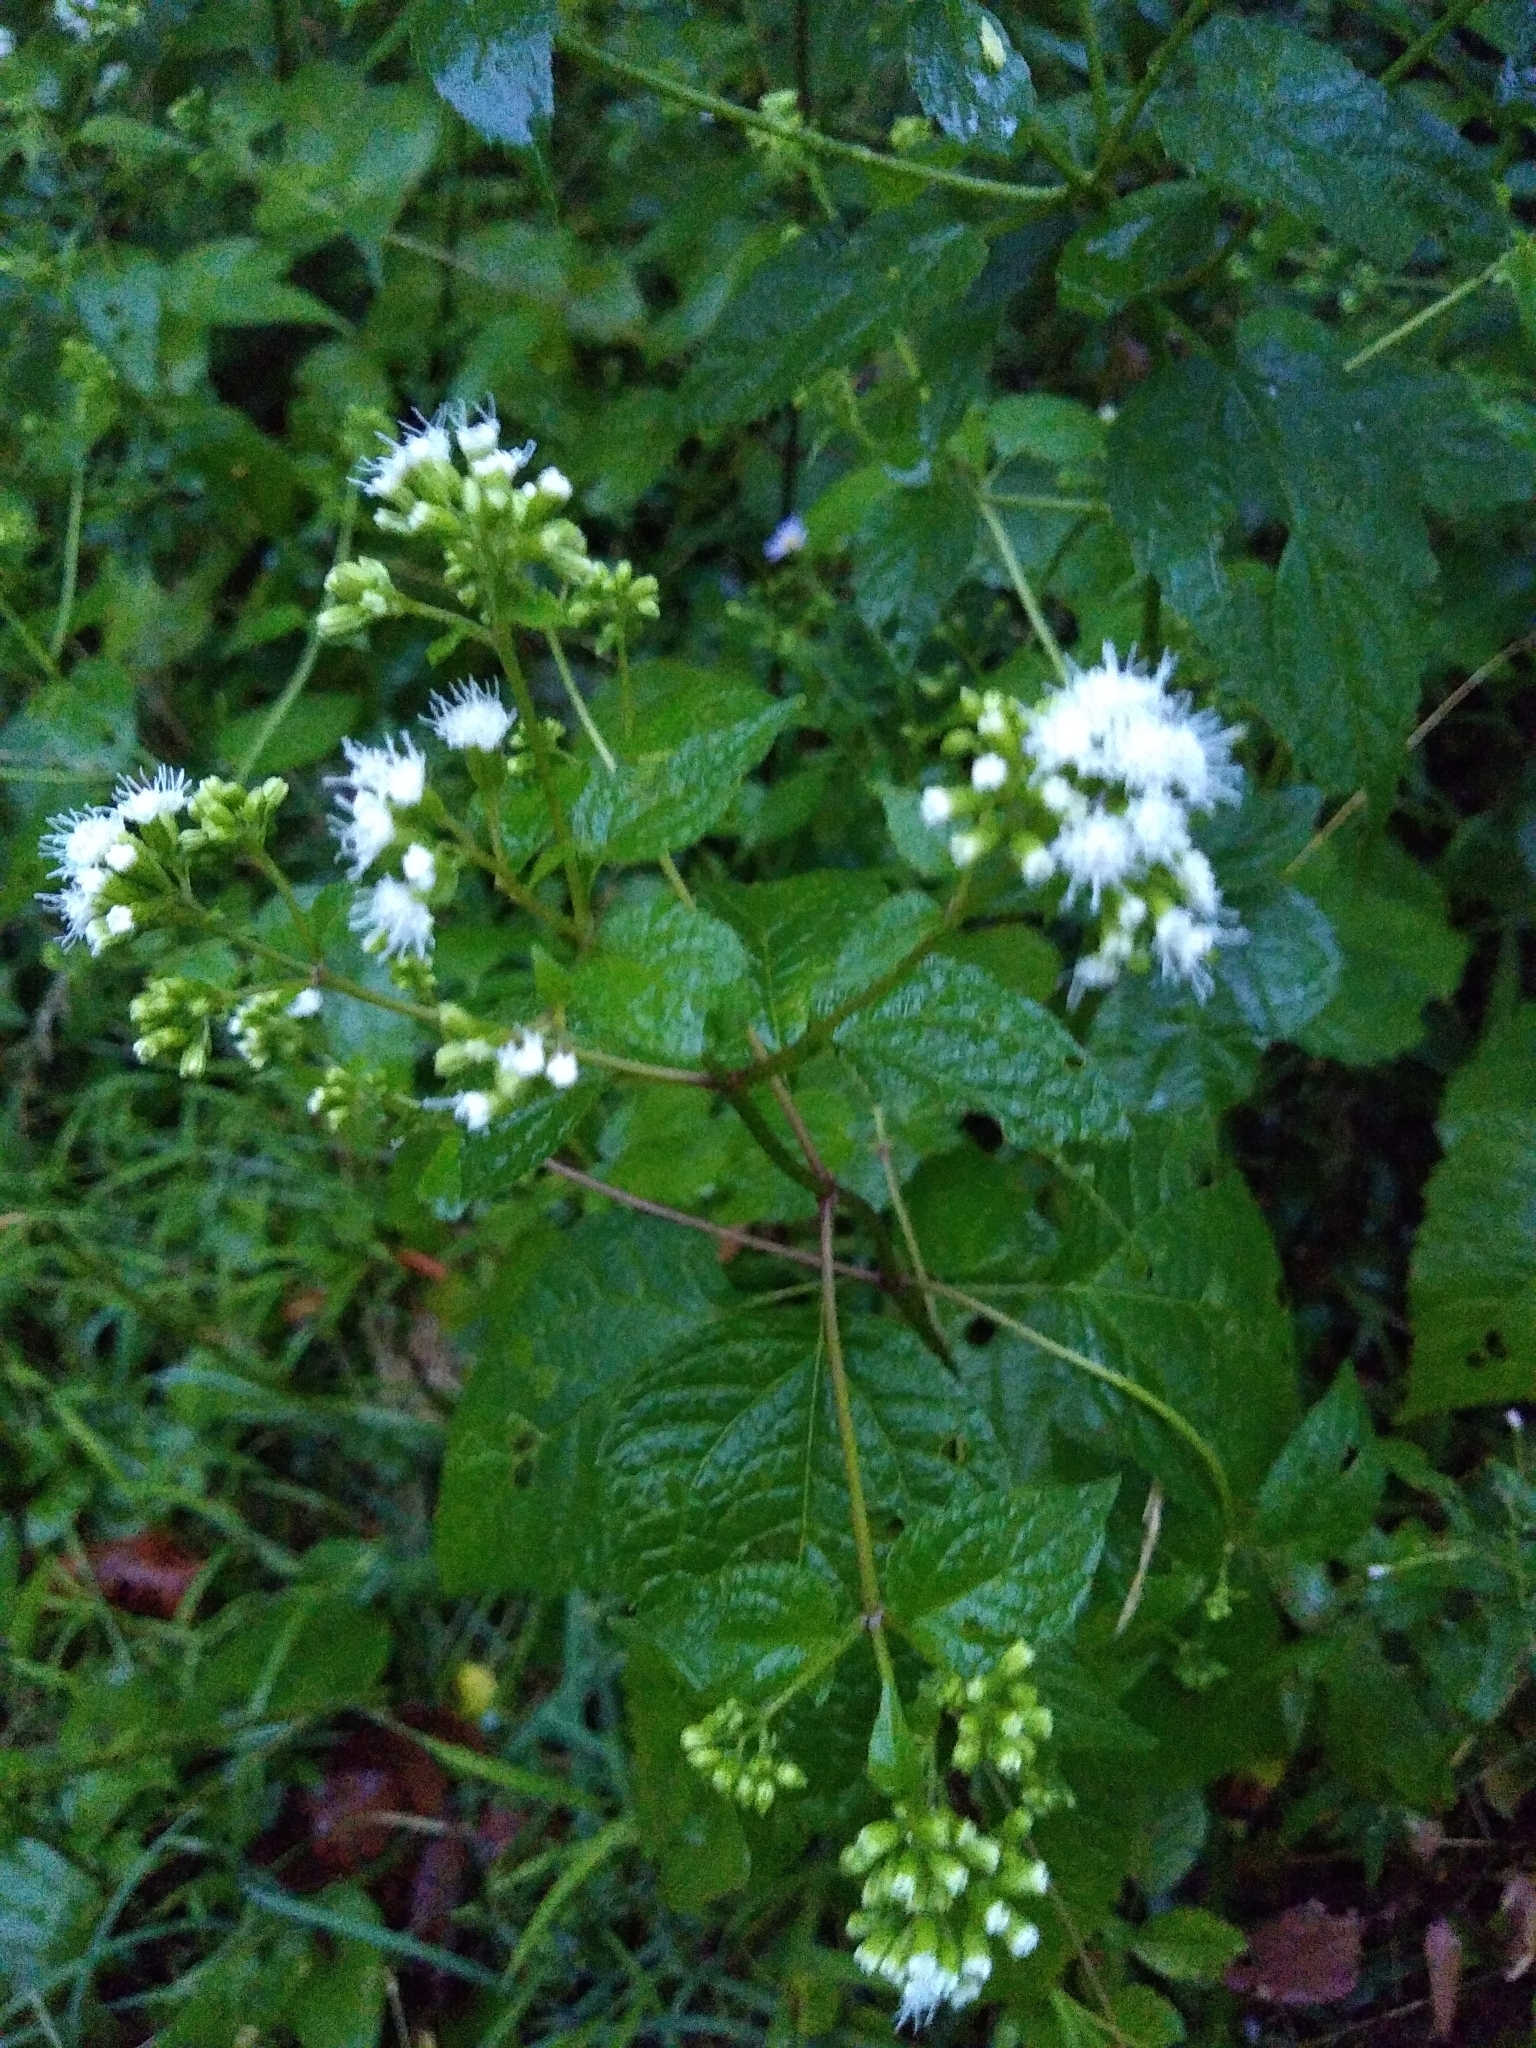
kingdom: Plantae
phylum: Tracheophyta
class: Magnoliopsida
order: Asterales
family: Asteraceae
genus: Ageratina
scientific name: Ageratina altissima
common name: White snakeroot
